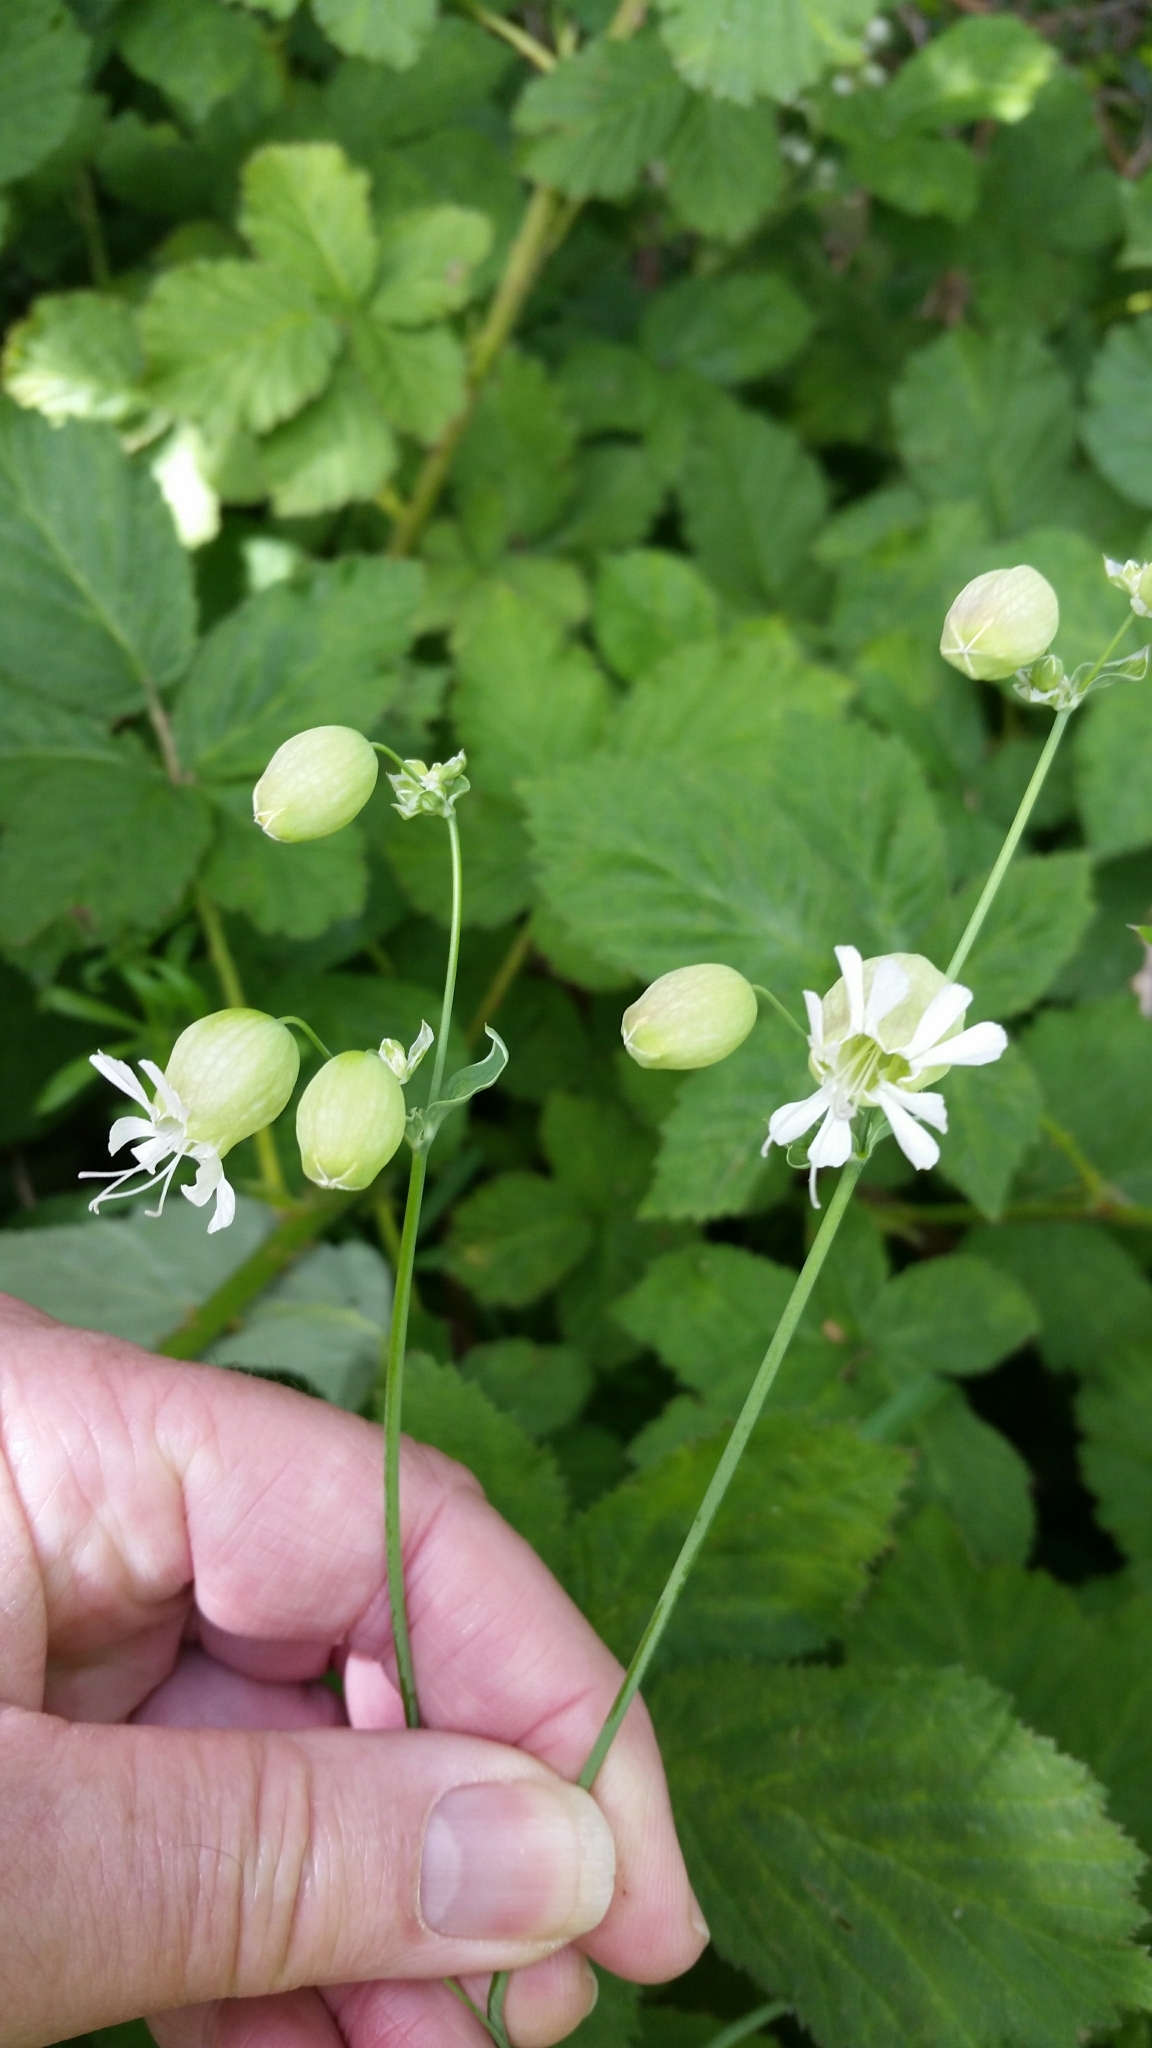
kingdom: Plantae
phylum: Tracheophyta
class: Magnoliopsida
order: Caryophyllales
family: Caryophyllaceae
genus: Silene
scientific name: Silene vulgaris
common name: Bladder campion
